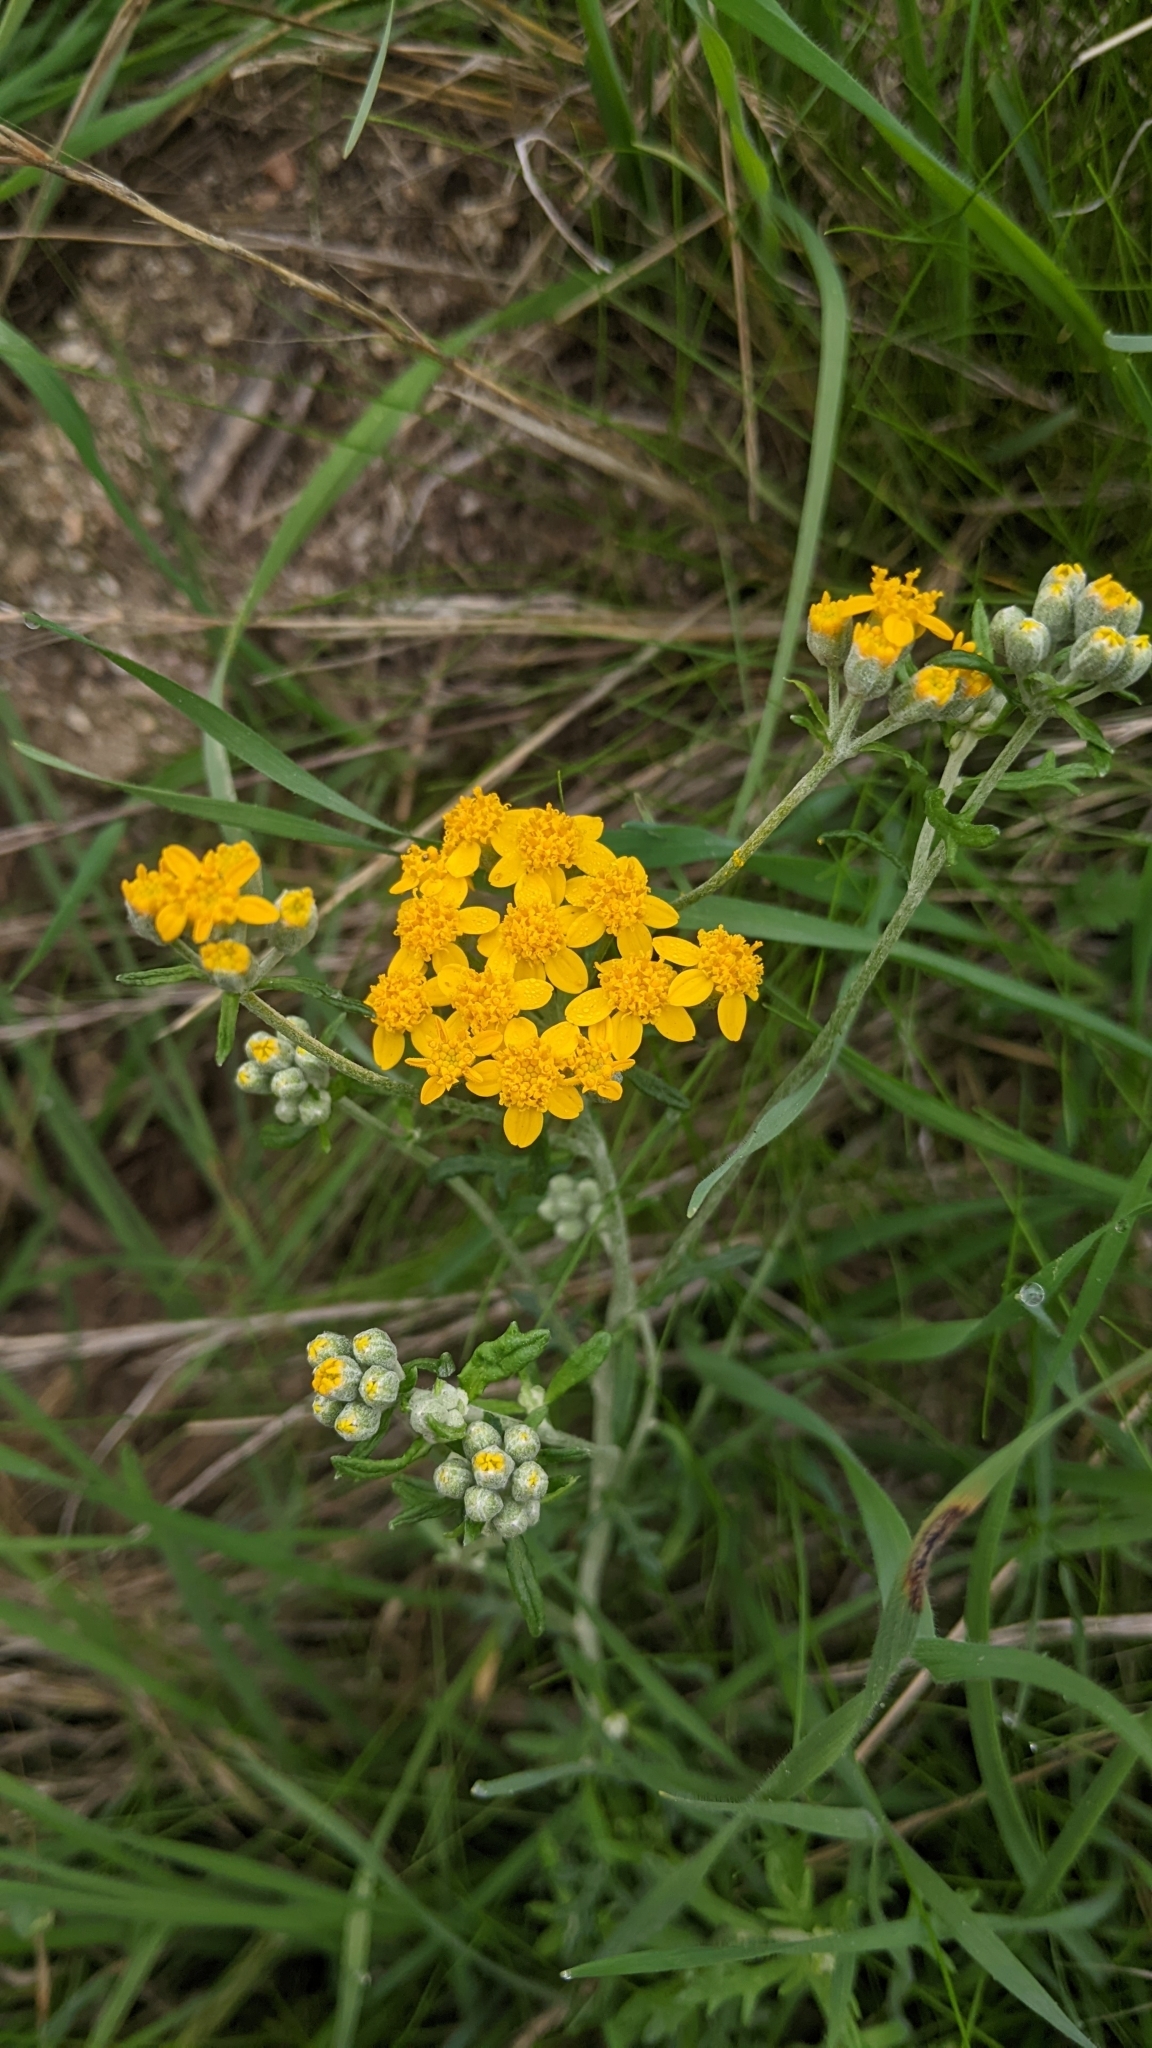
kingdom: Plantae
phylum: Tracheophyta
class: Magnoliopsida
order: Asterales
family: Asteraceae
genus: Eriophyllum
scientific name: Eriophyllum confertiflorum
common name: Golden-yarrow
